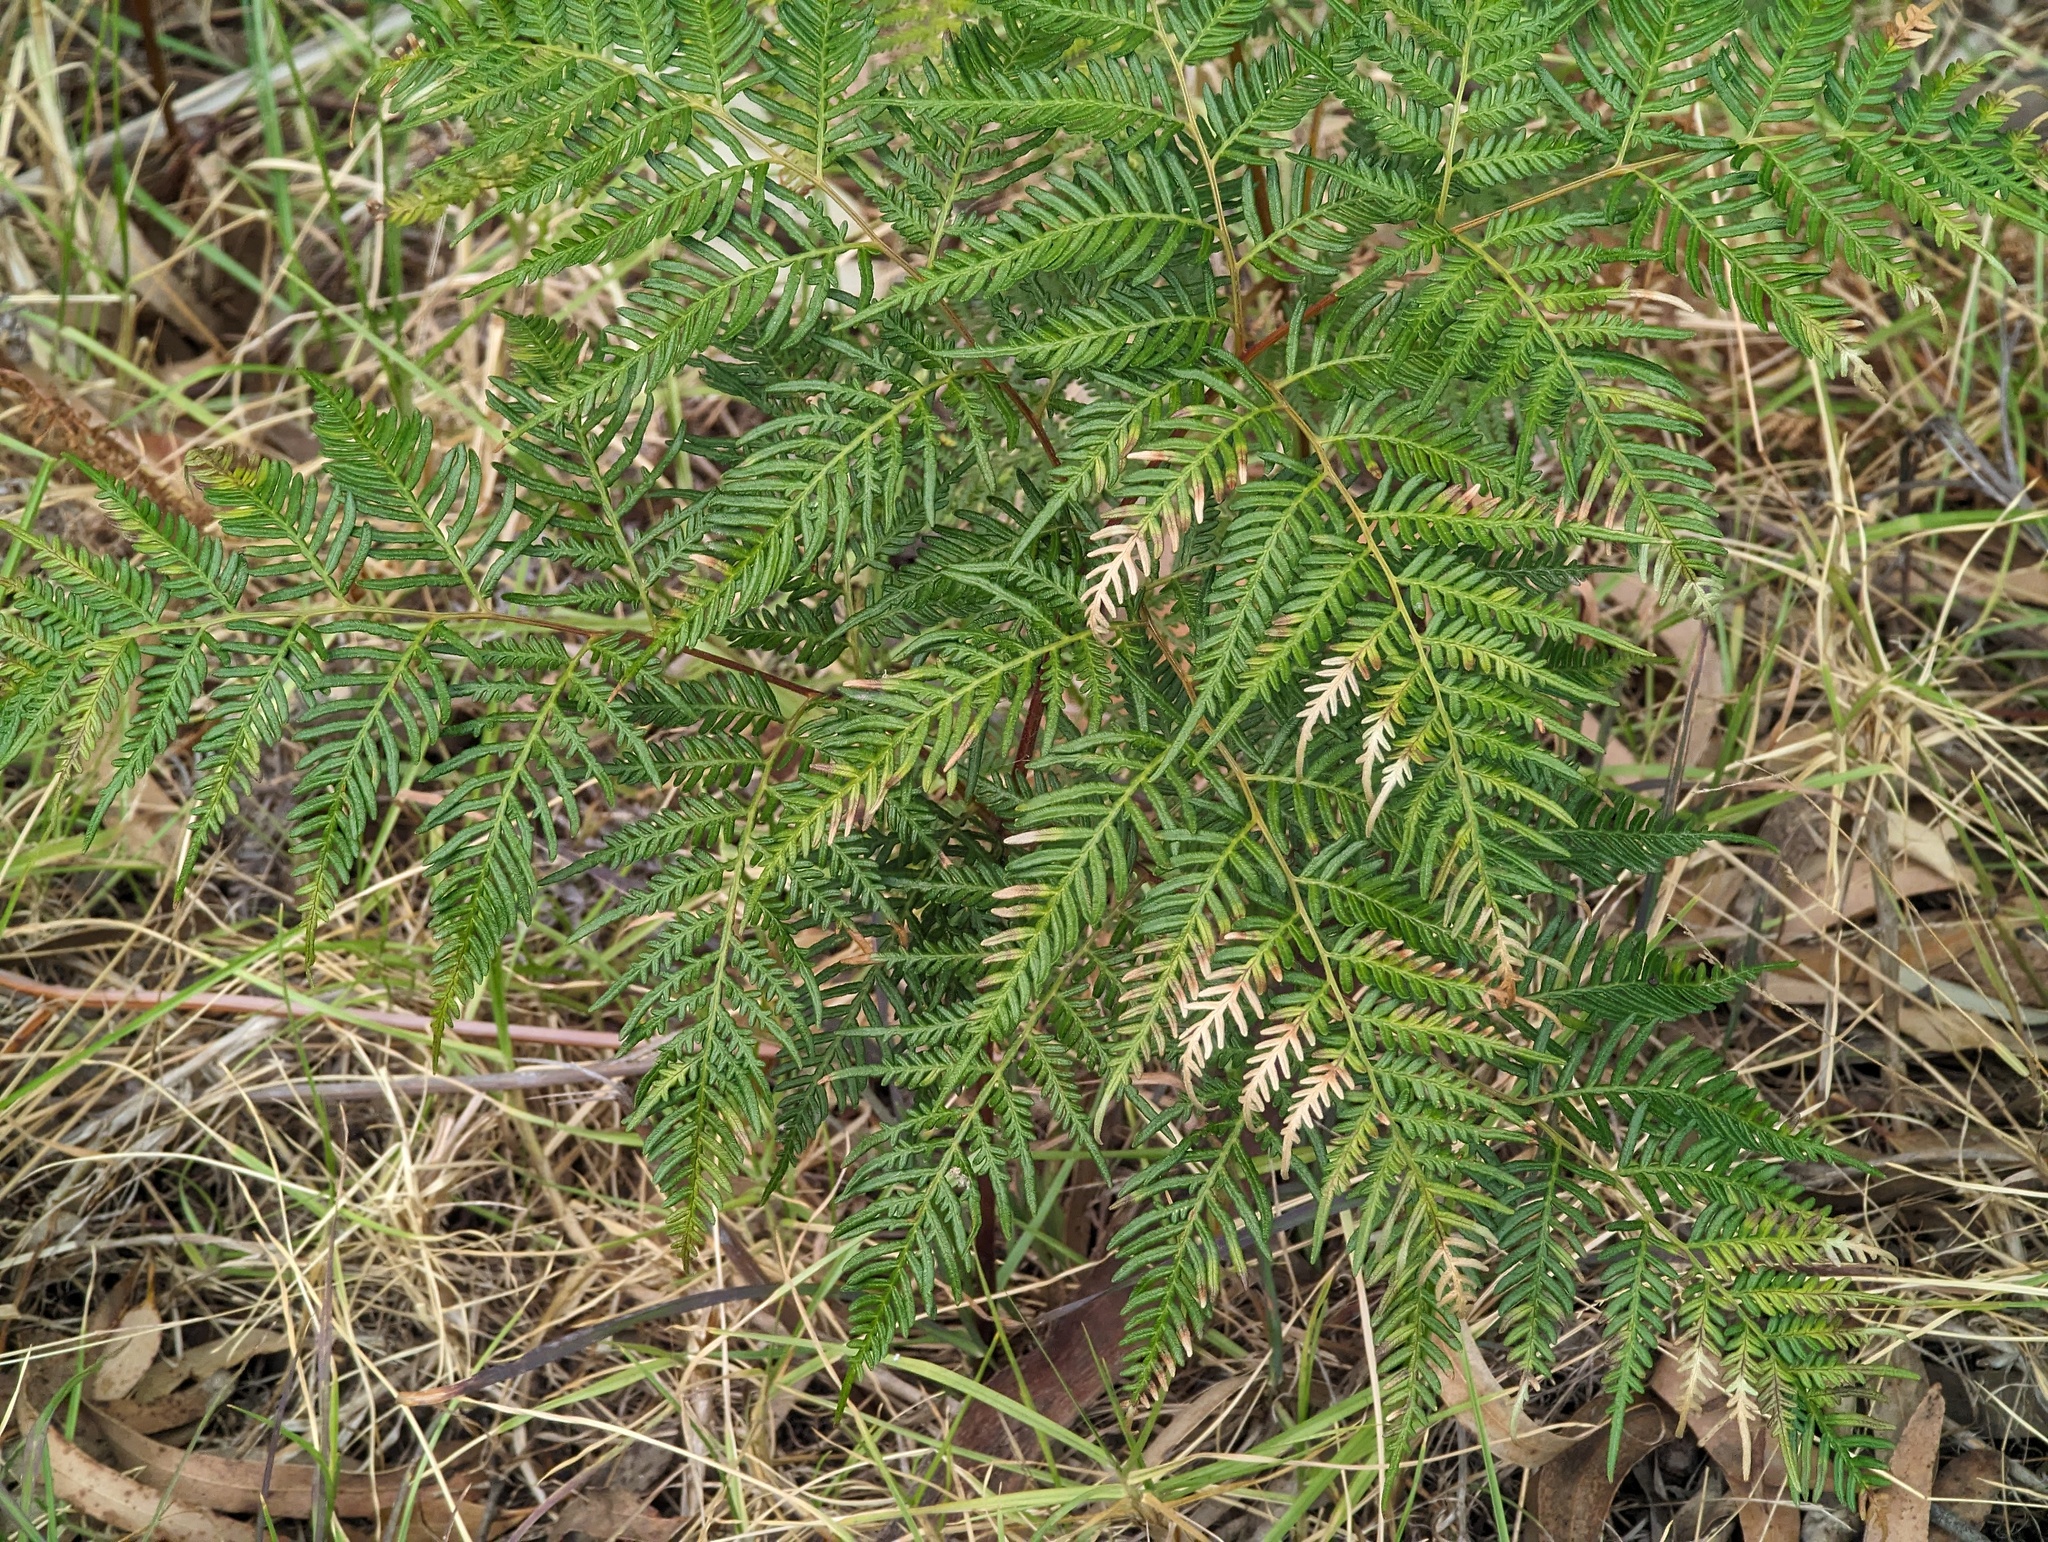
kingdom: Plantae
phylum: Tracheophyta
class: Polypodiopsida
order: Polypodiales
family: Dennstaedtiaceae
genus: Pteridium
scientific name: Pteridium esculentum
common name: Bracken fern
